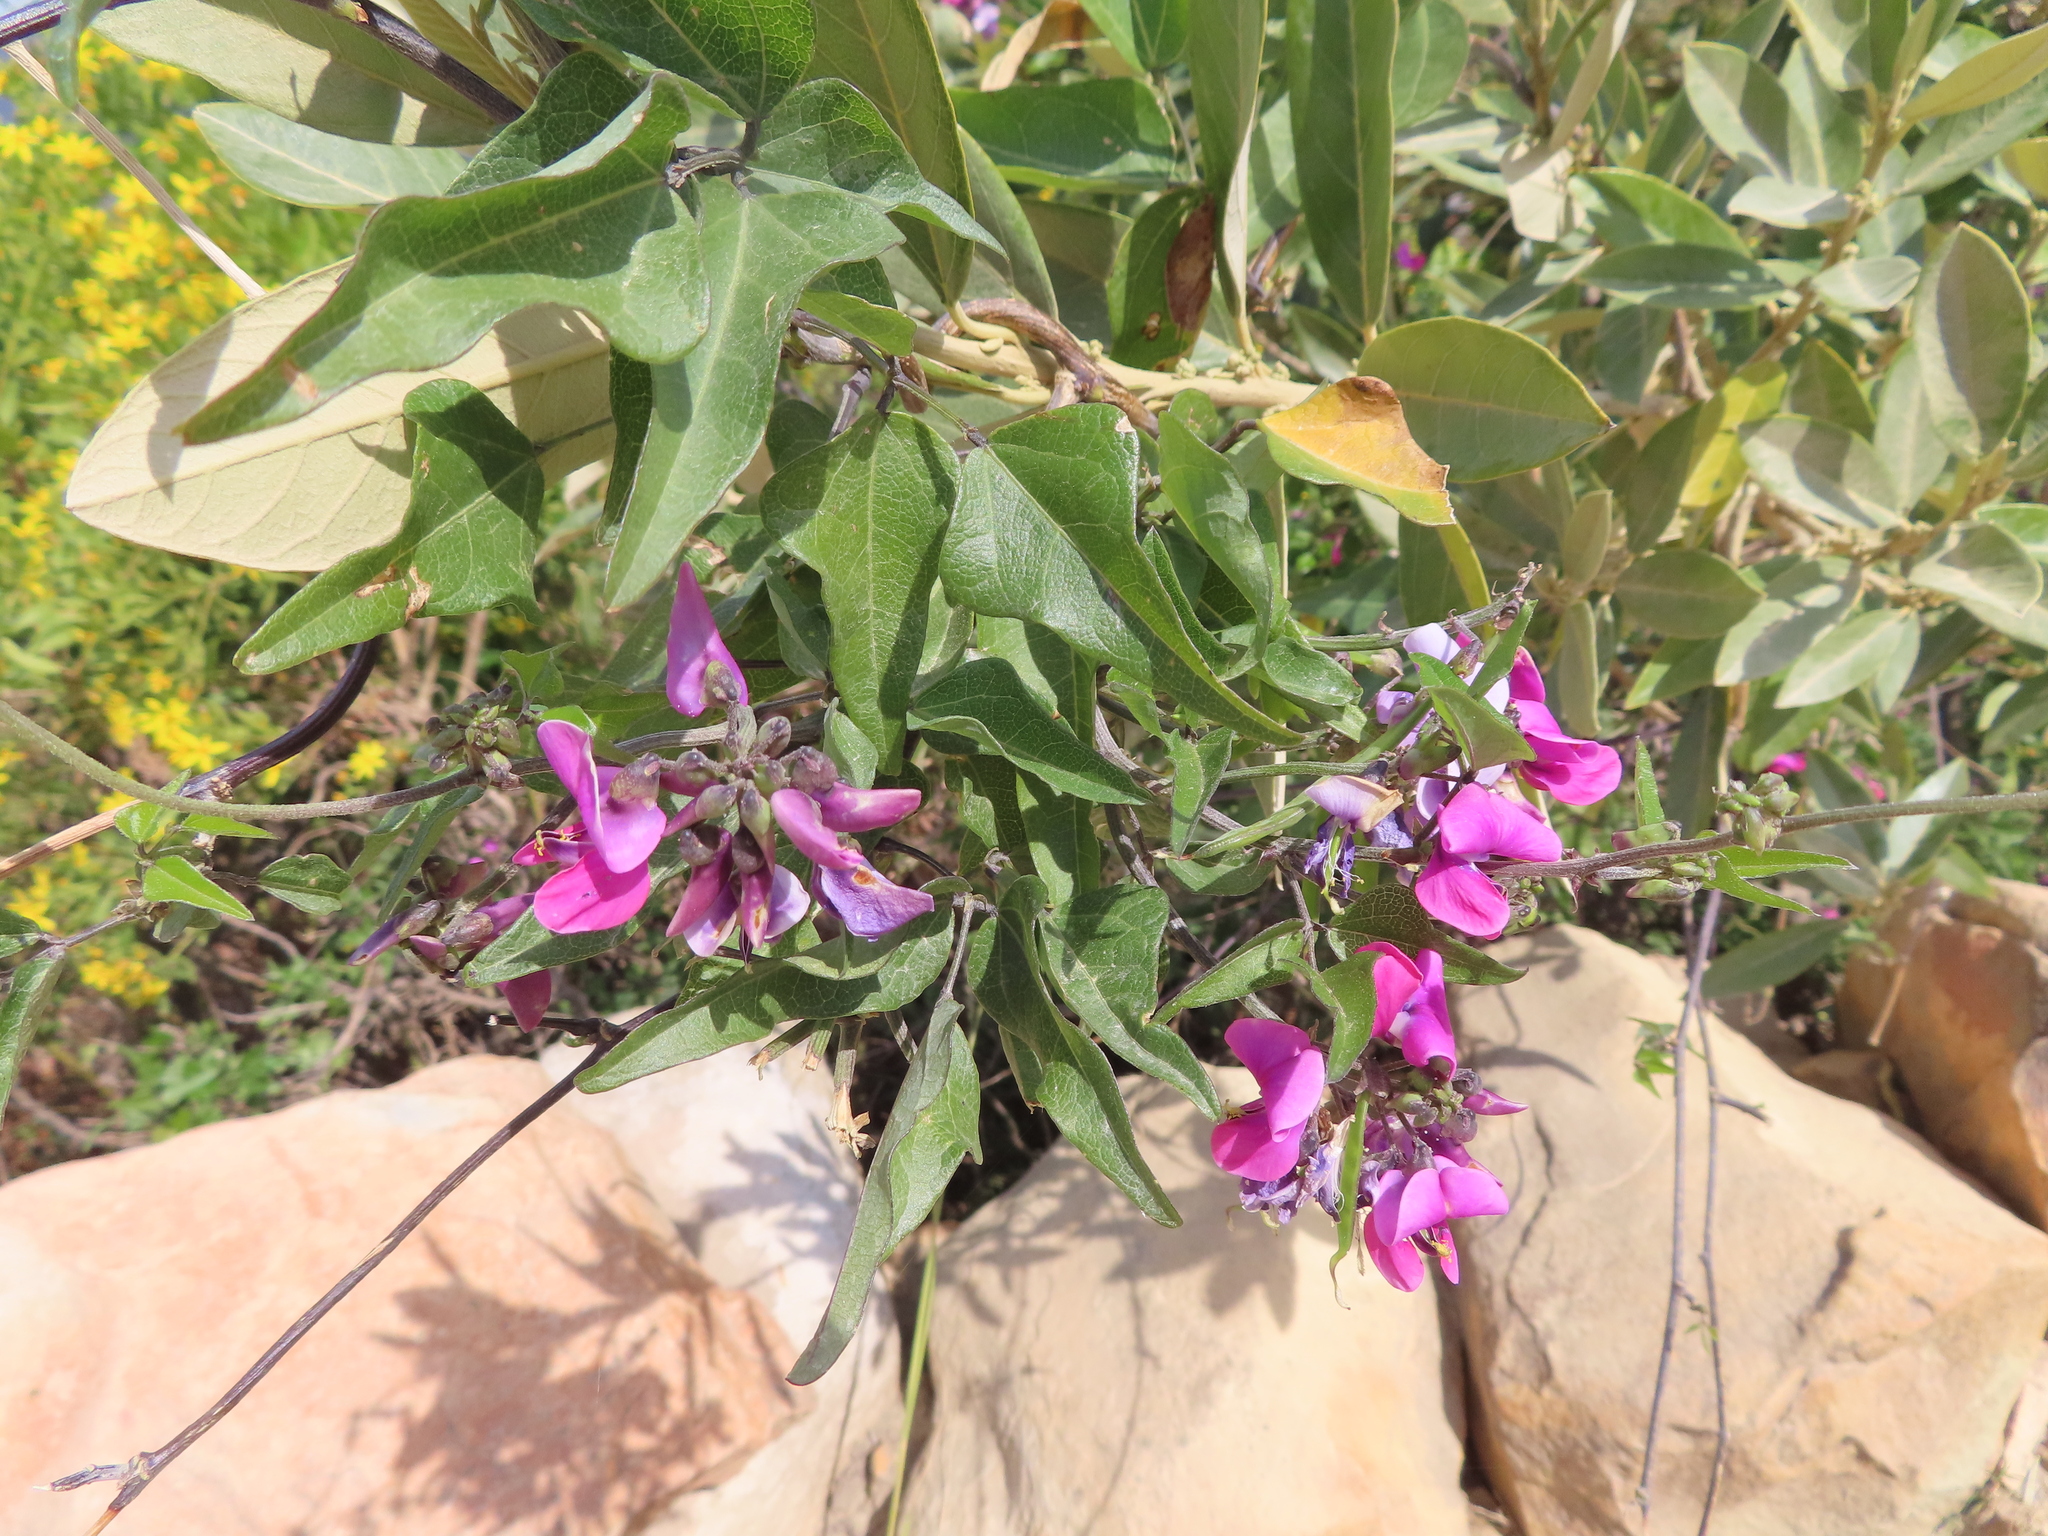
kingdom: Plantae
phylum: Tracheophyta
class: Magnoliopsida
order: Fabales
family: Fabaceae
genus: Dipogon
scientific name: Dipogon lignosus
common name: Okie bean
